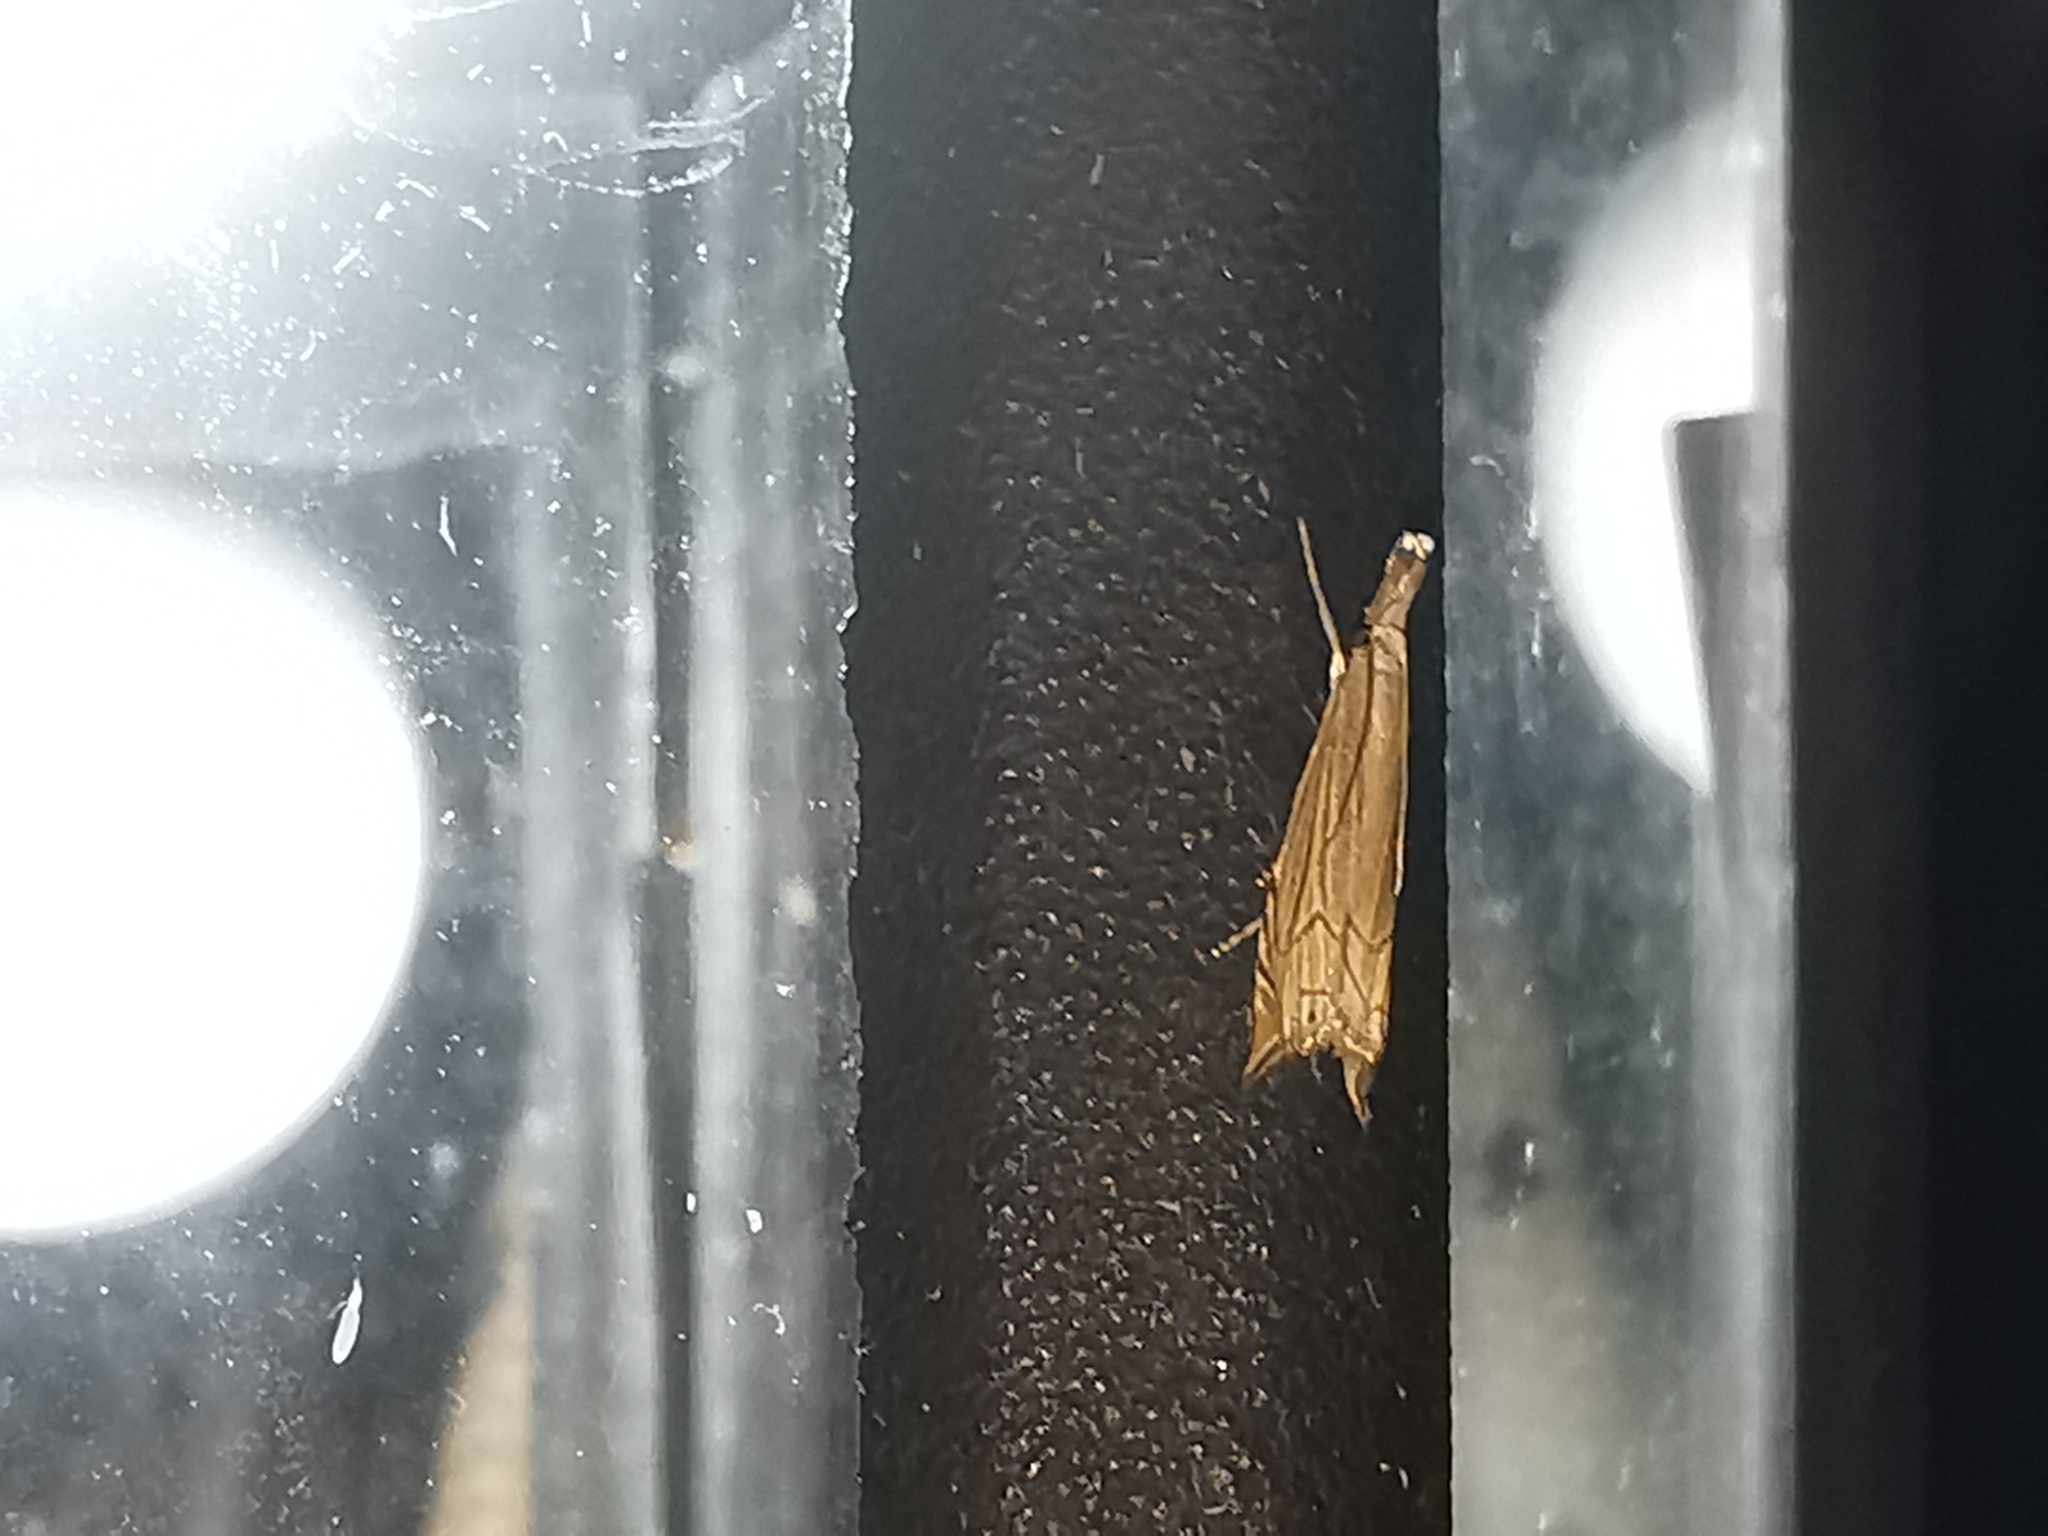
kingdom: Animalia
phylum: Arthropoda
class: Insecta
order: Lepidoptera
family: Crambidae
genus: Metacrambus
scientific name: Metacrambus carectellus
